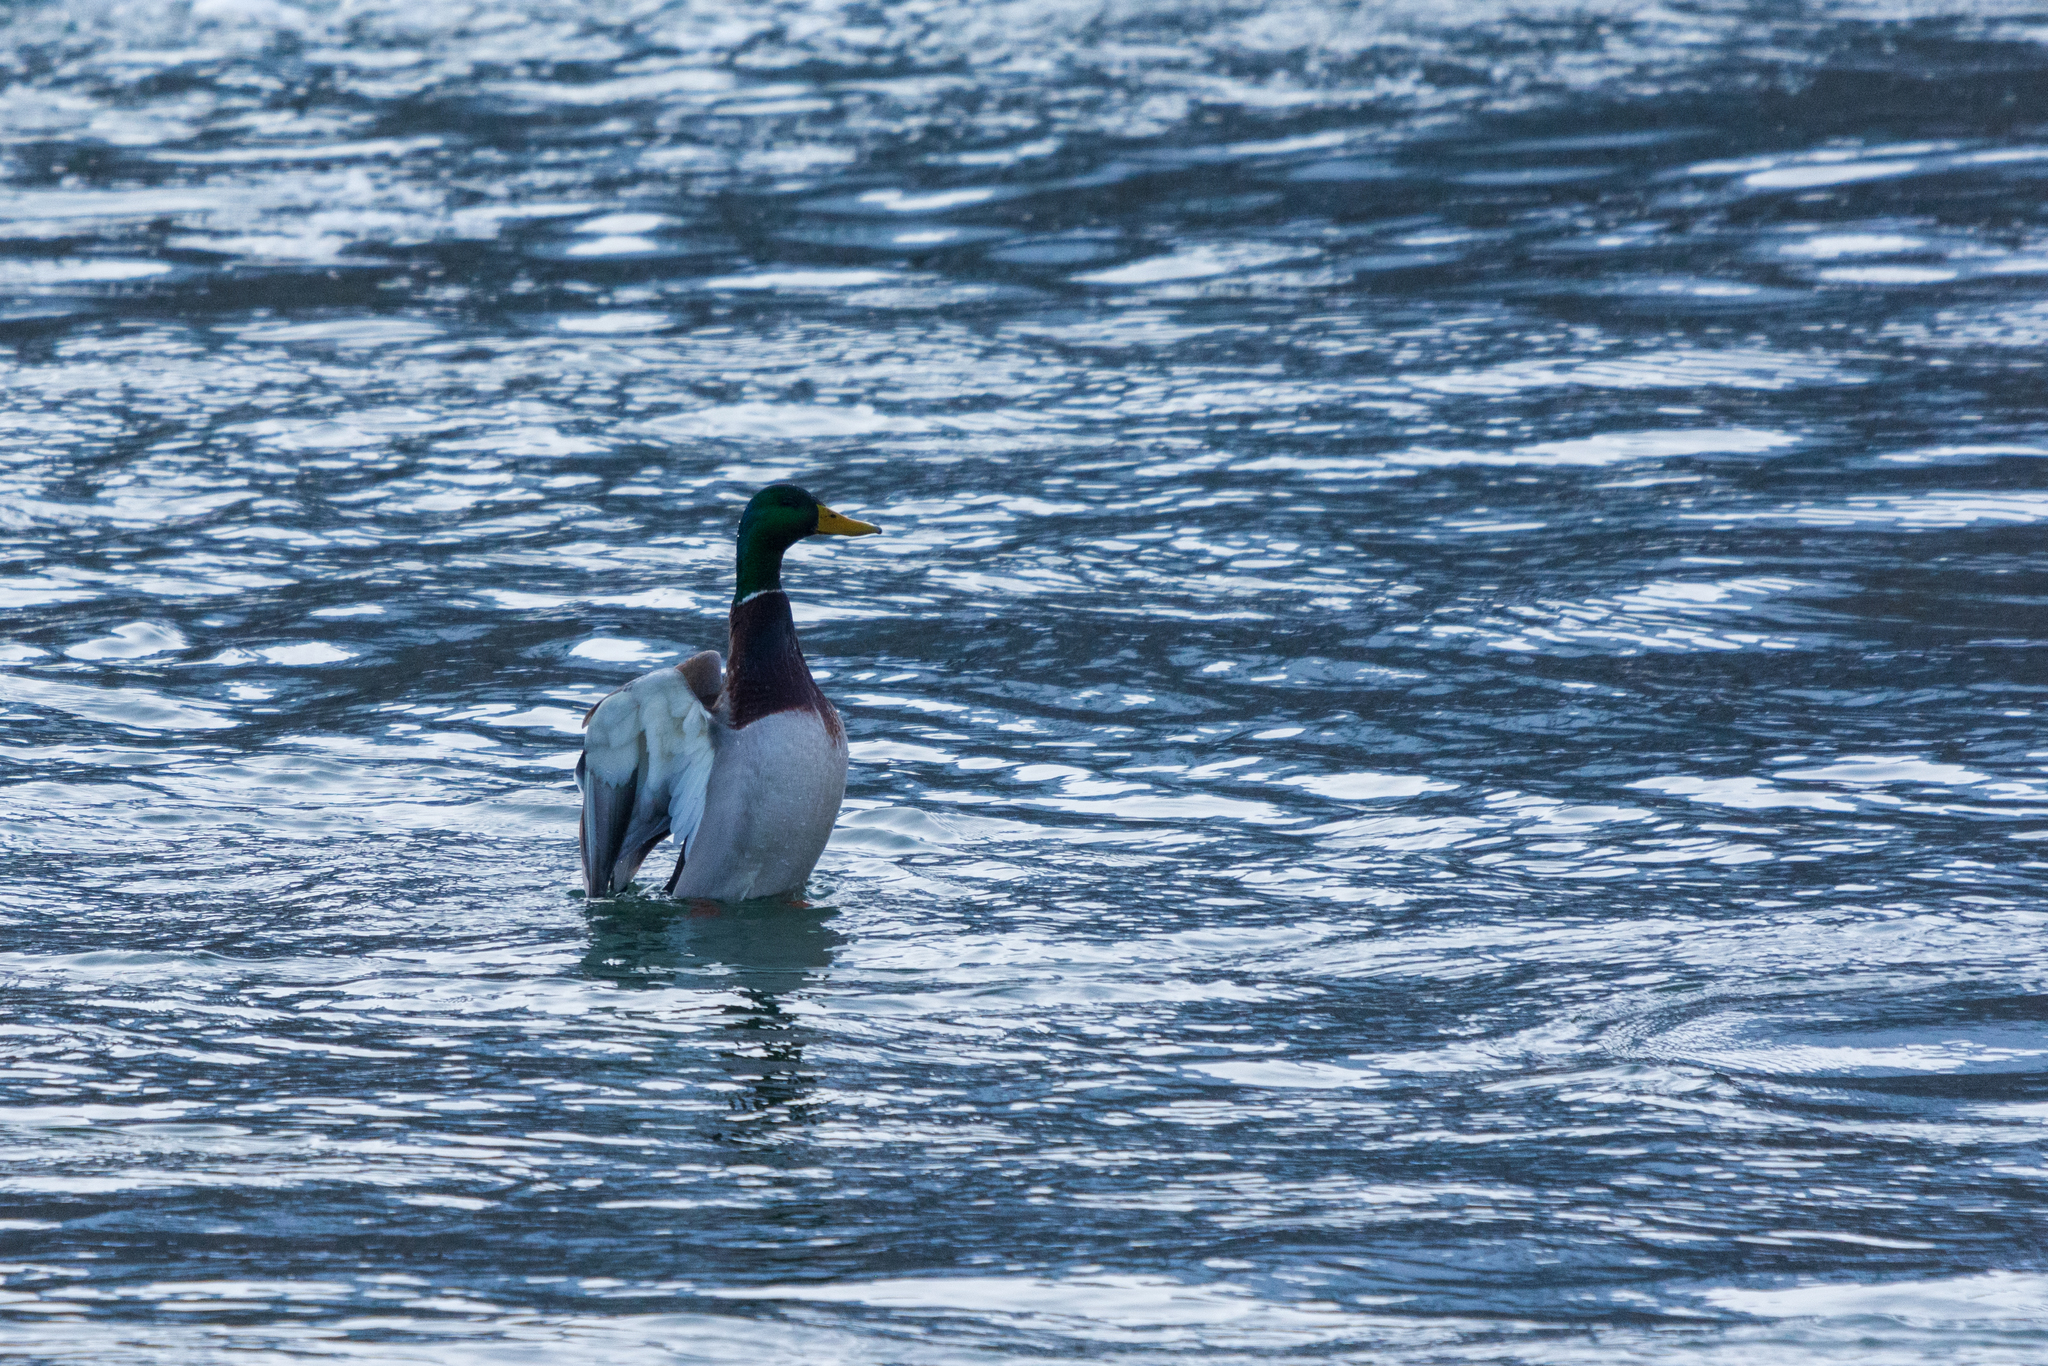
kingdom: Animalia
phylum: Chordata
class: Aves
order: Anseriformes
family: Anatidae
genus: Anas
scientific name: Anas platyrhynchos
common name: Mallard
